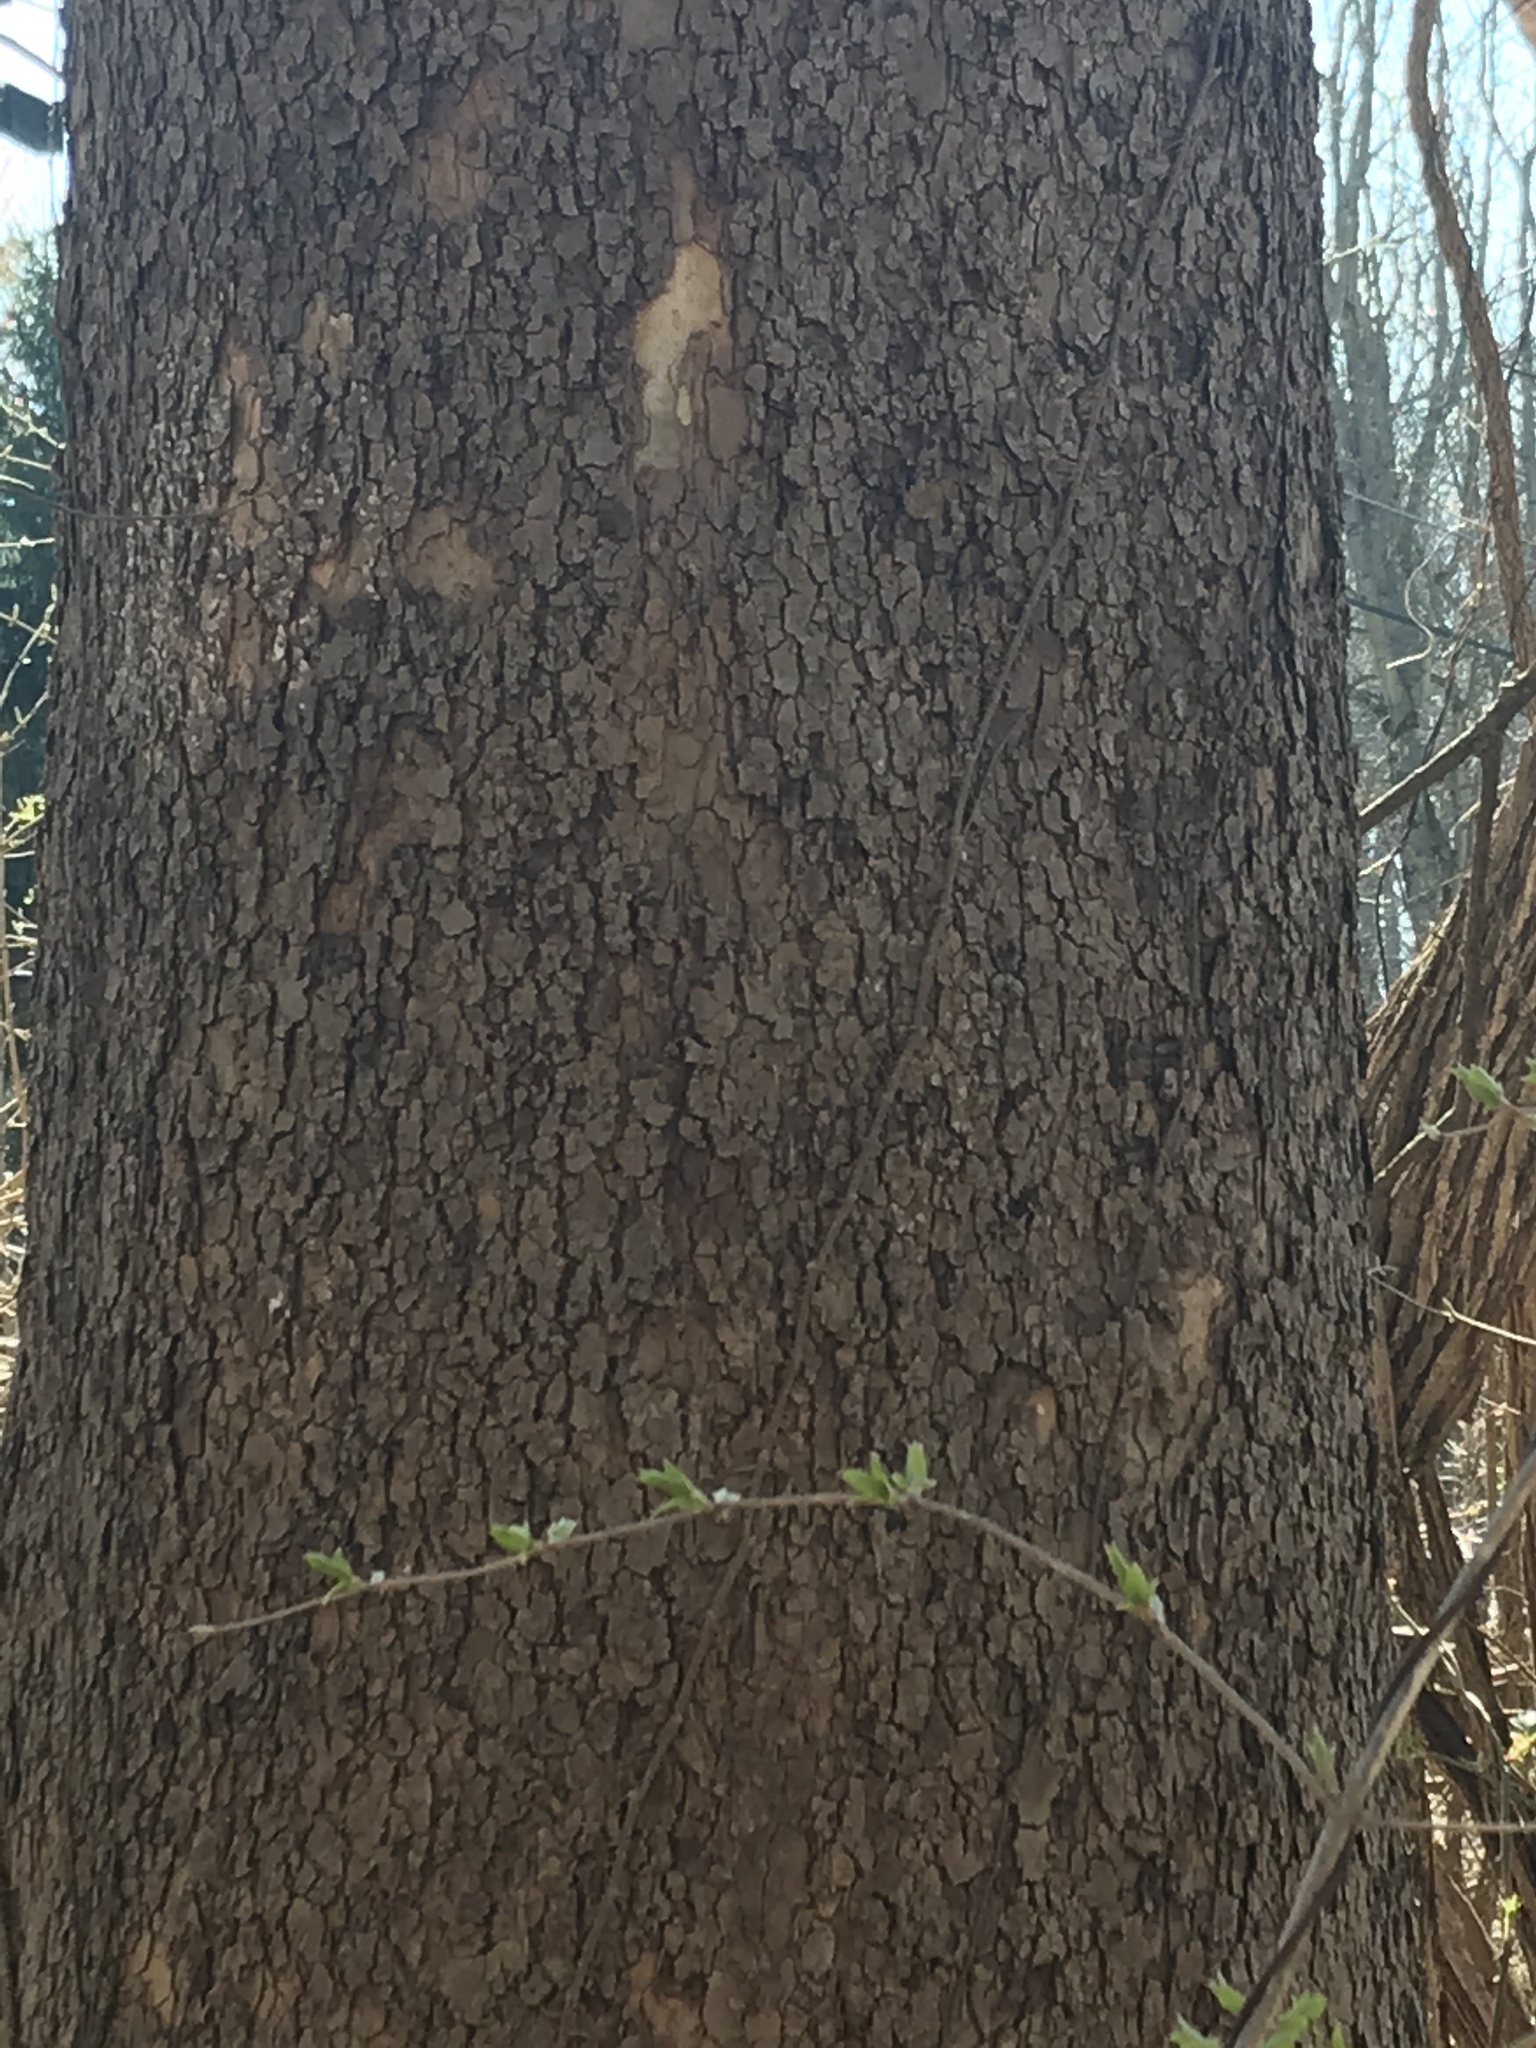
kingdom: Plantae
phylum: Tracheophyta
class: Magnoliopsida
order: Proteales
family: Platanaceae
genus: Platanus
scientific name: Platanus occidentalis
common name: American sycamore
